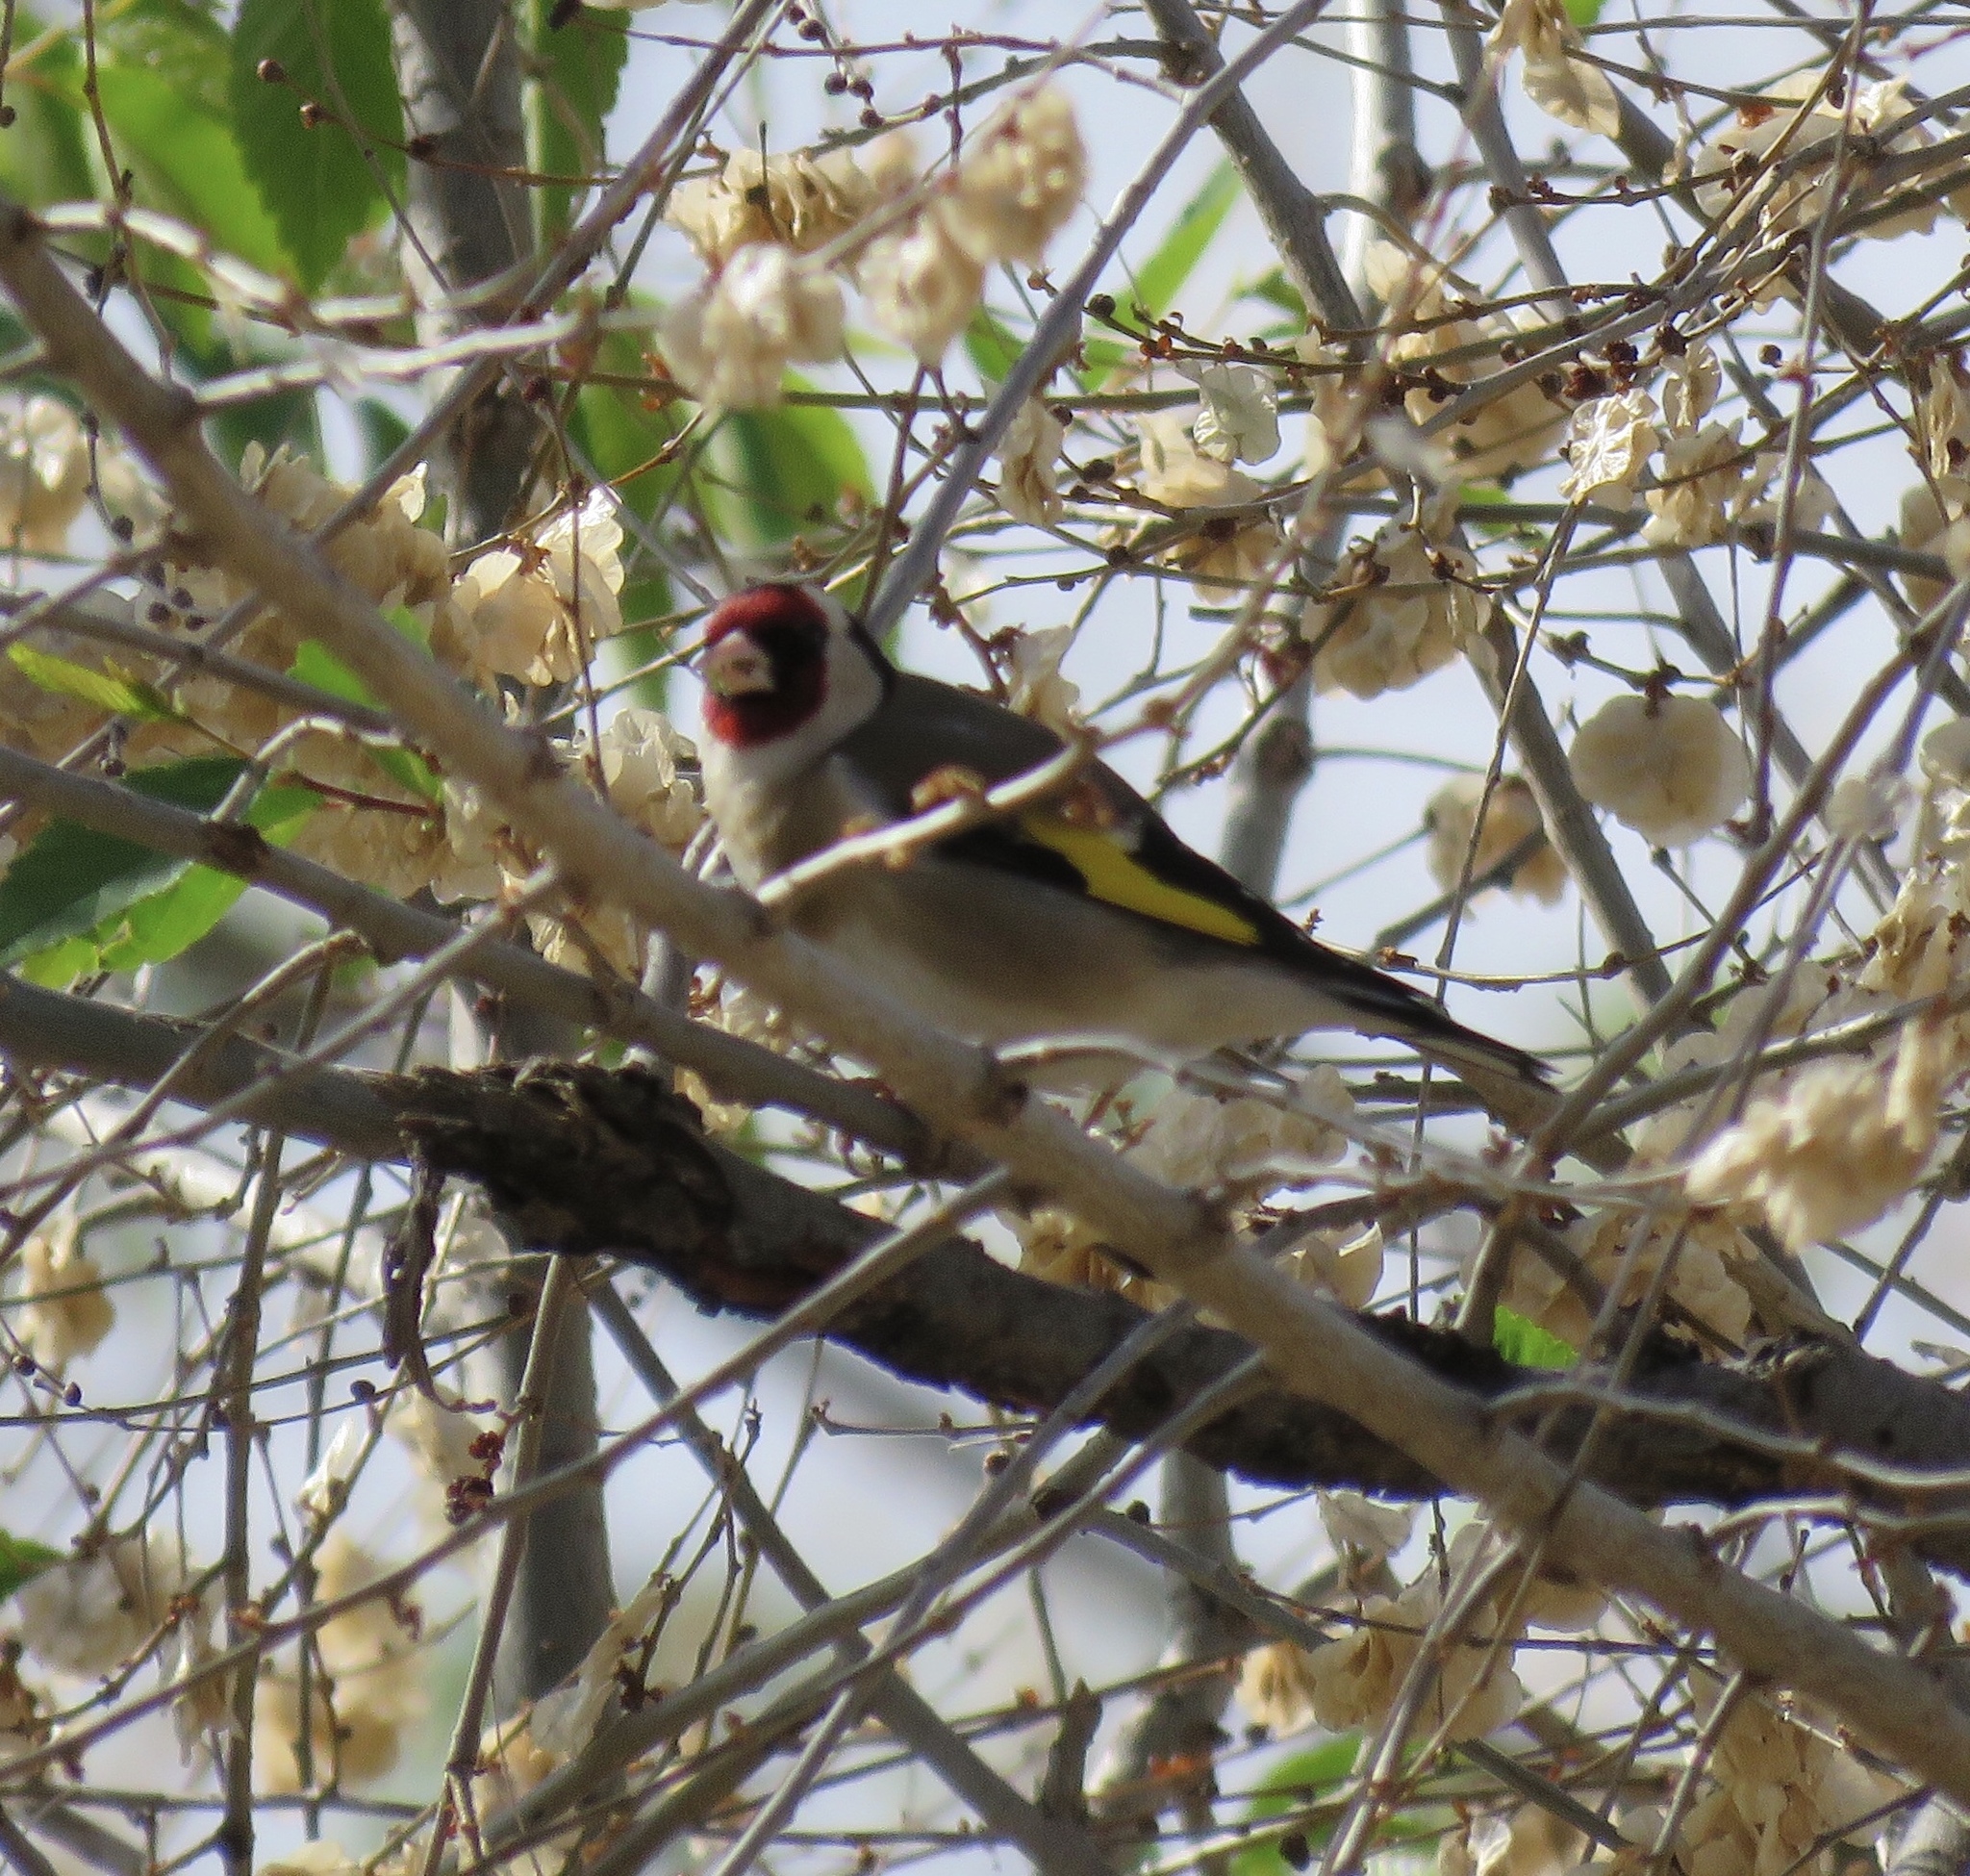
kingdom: Animalia
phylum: Chordata
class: Aves
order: Passeriformes
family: Fringillidae
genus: Carduelis
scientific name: Carduelis carduelis
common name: European goldfinch
